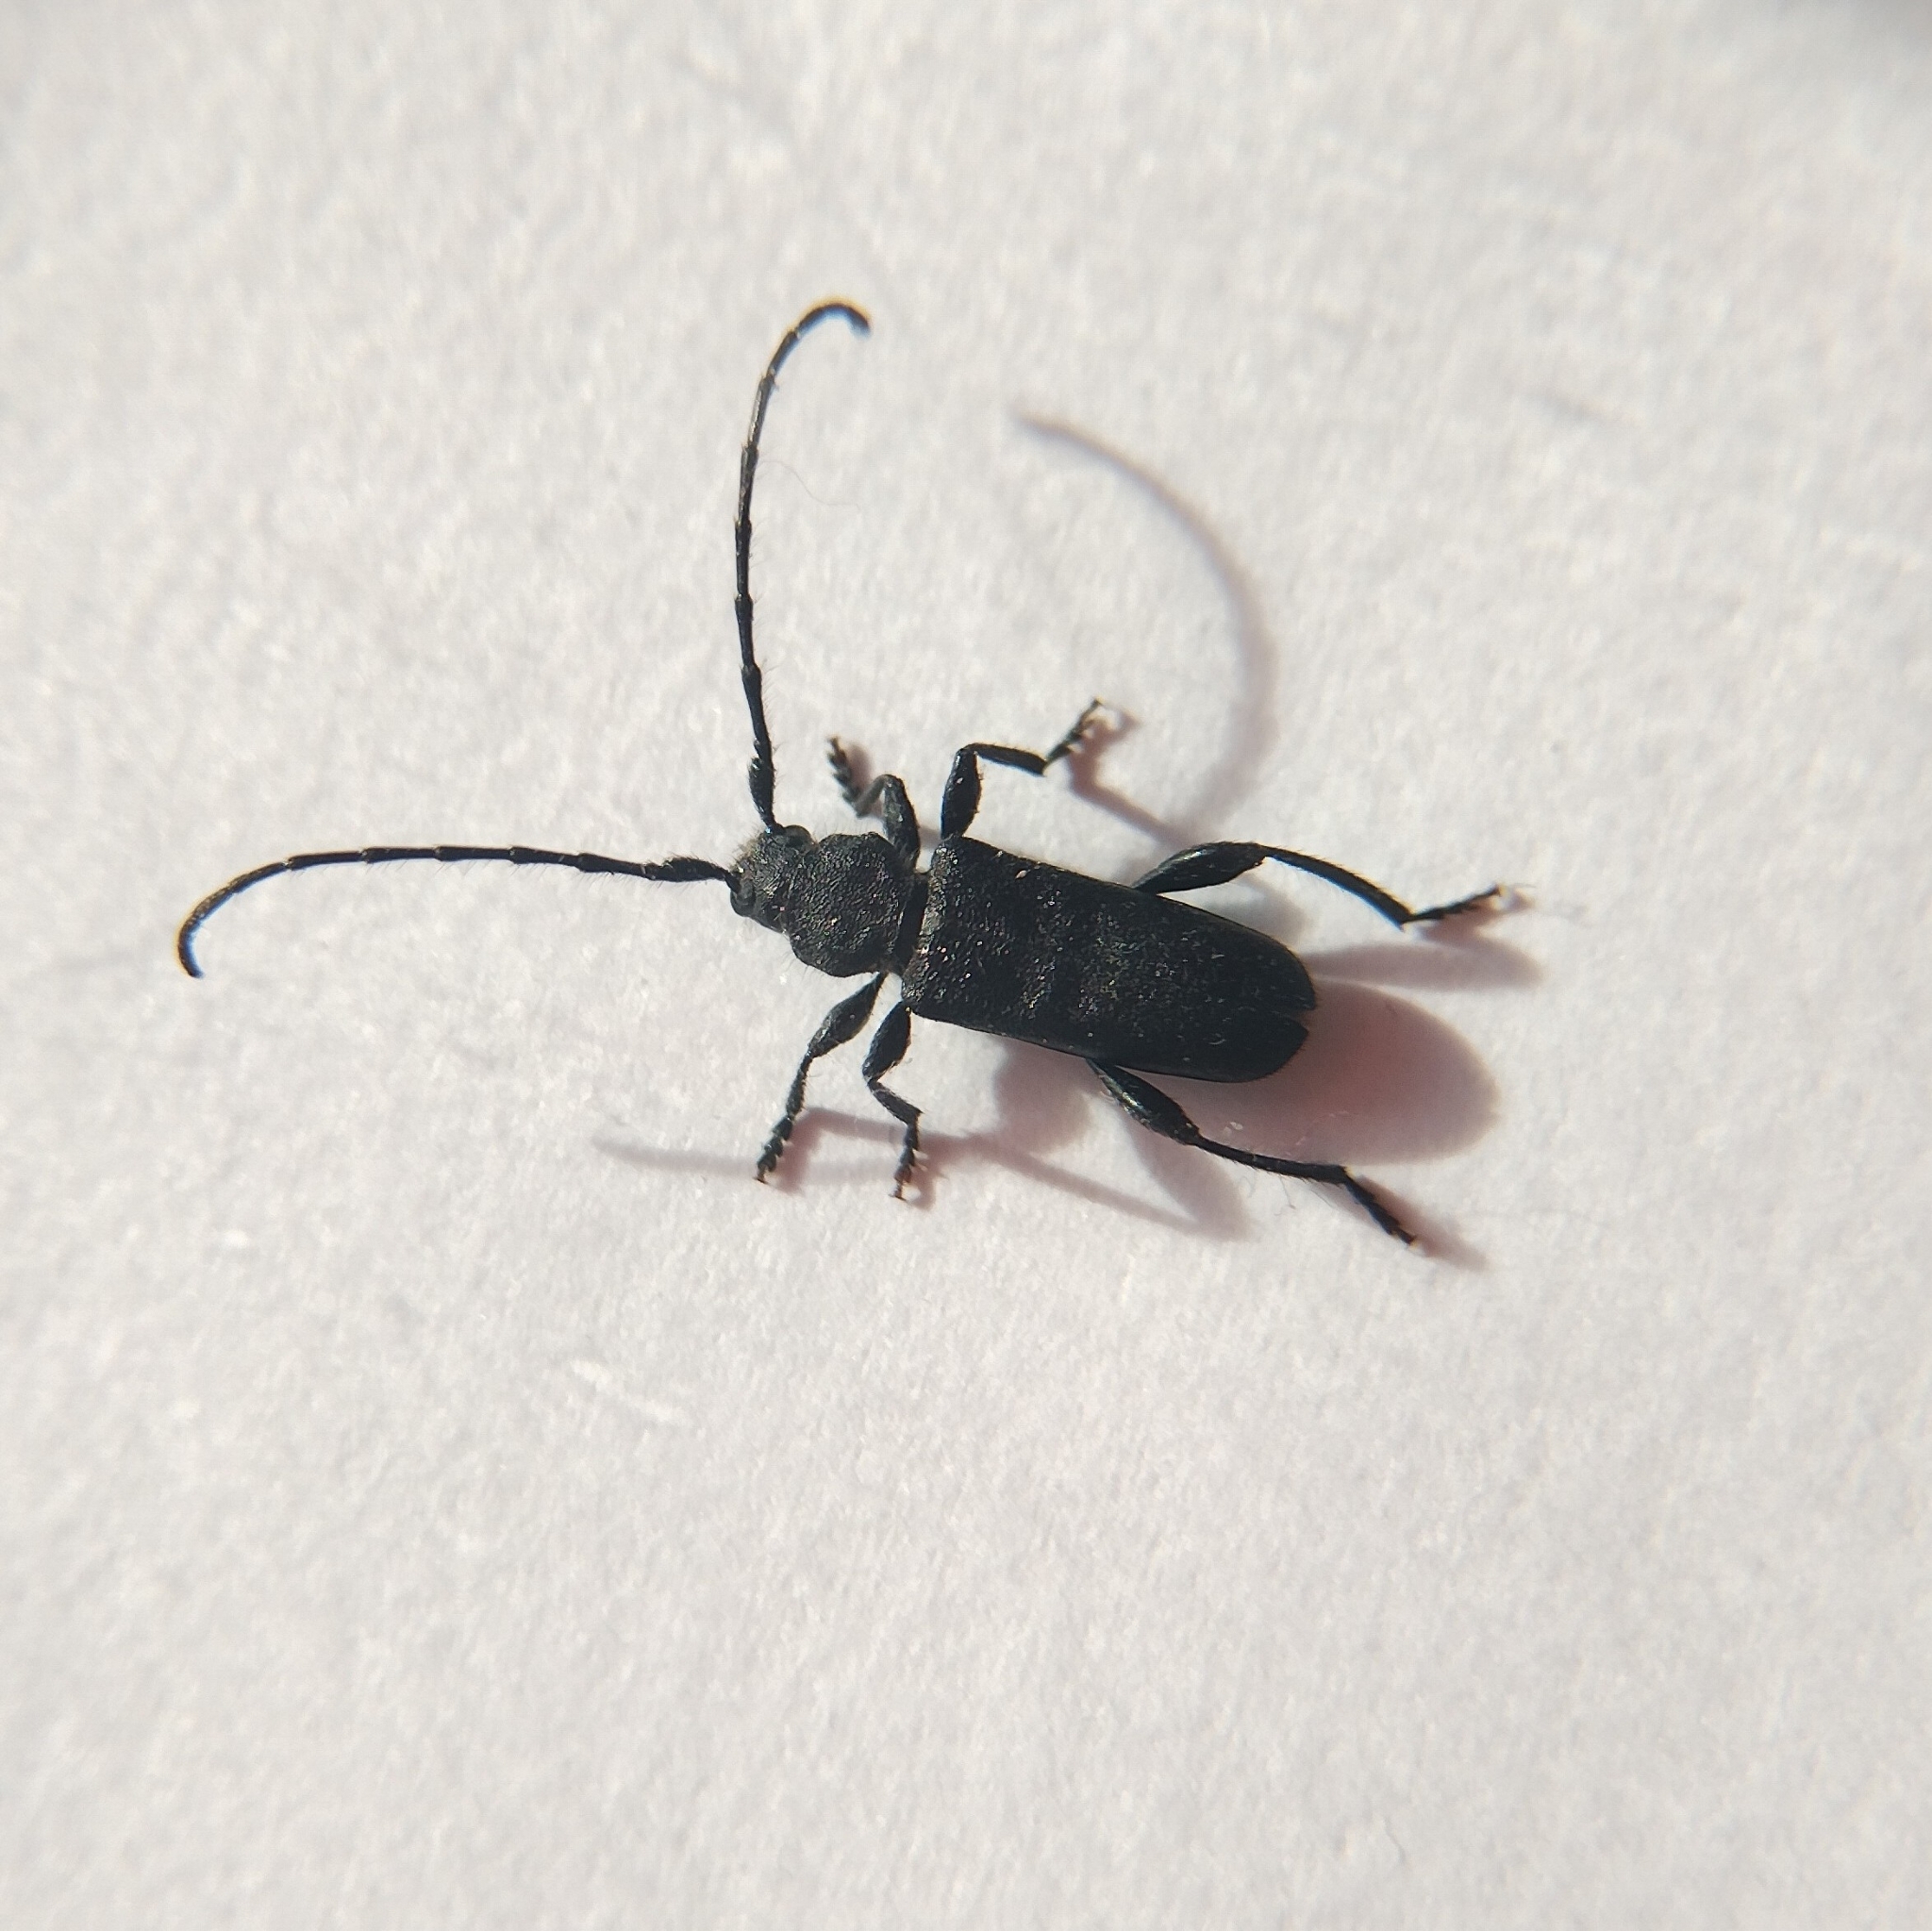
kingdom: Animalia
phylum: Arthropoda
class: Insecta
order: Coleoptera
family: Cerambycidae
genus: Ropalopus
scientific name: Ropalopus macropus
